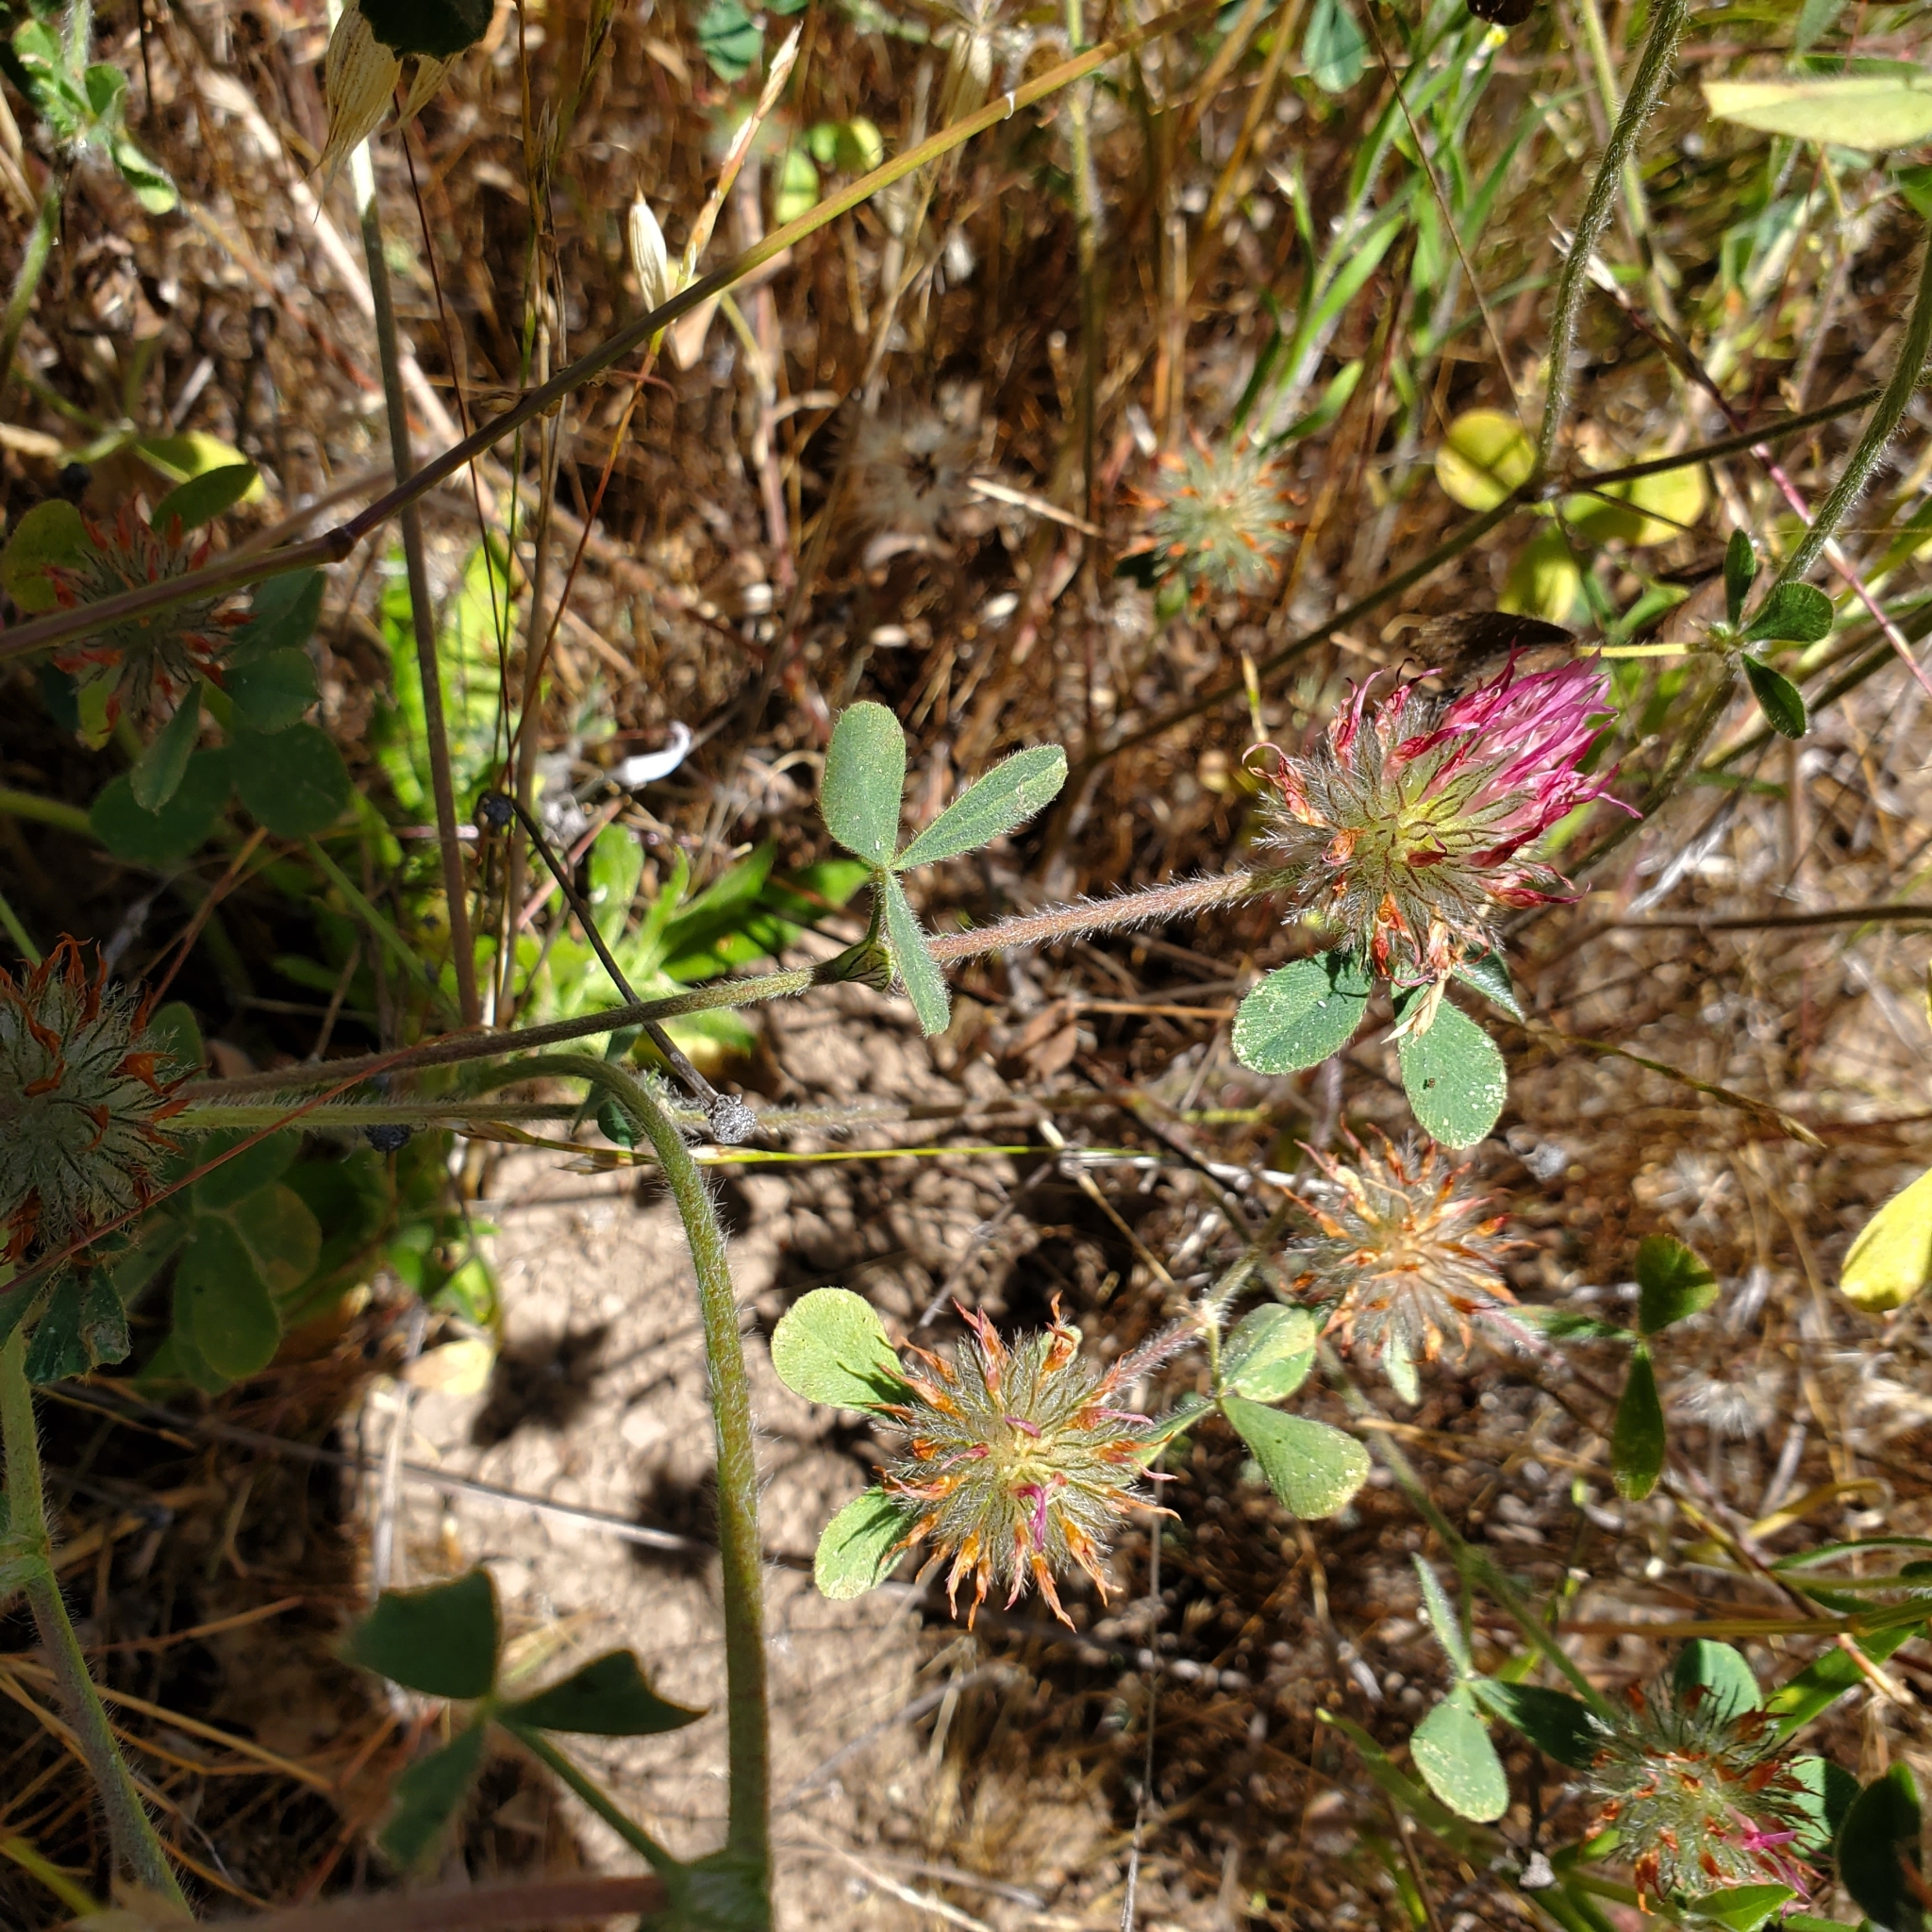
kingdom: Plantae
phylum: Tracheophyta
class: Magnoliopsida
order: Fabales
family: Fabaceae
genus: Trifolium
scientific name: Trifolium hirtum
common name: Rose clover
